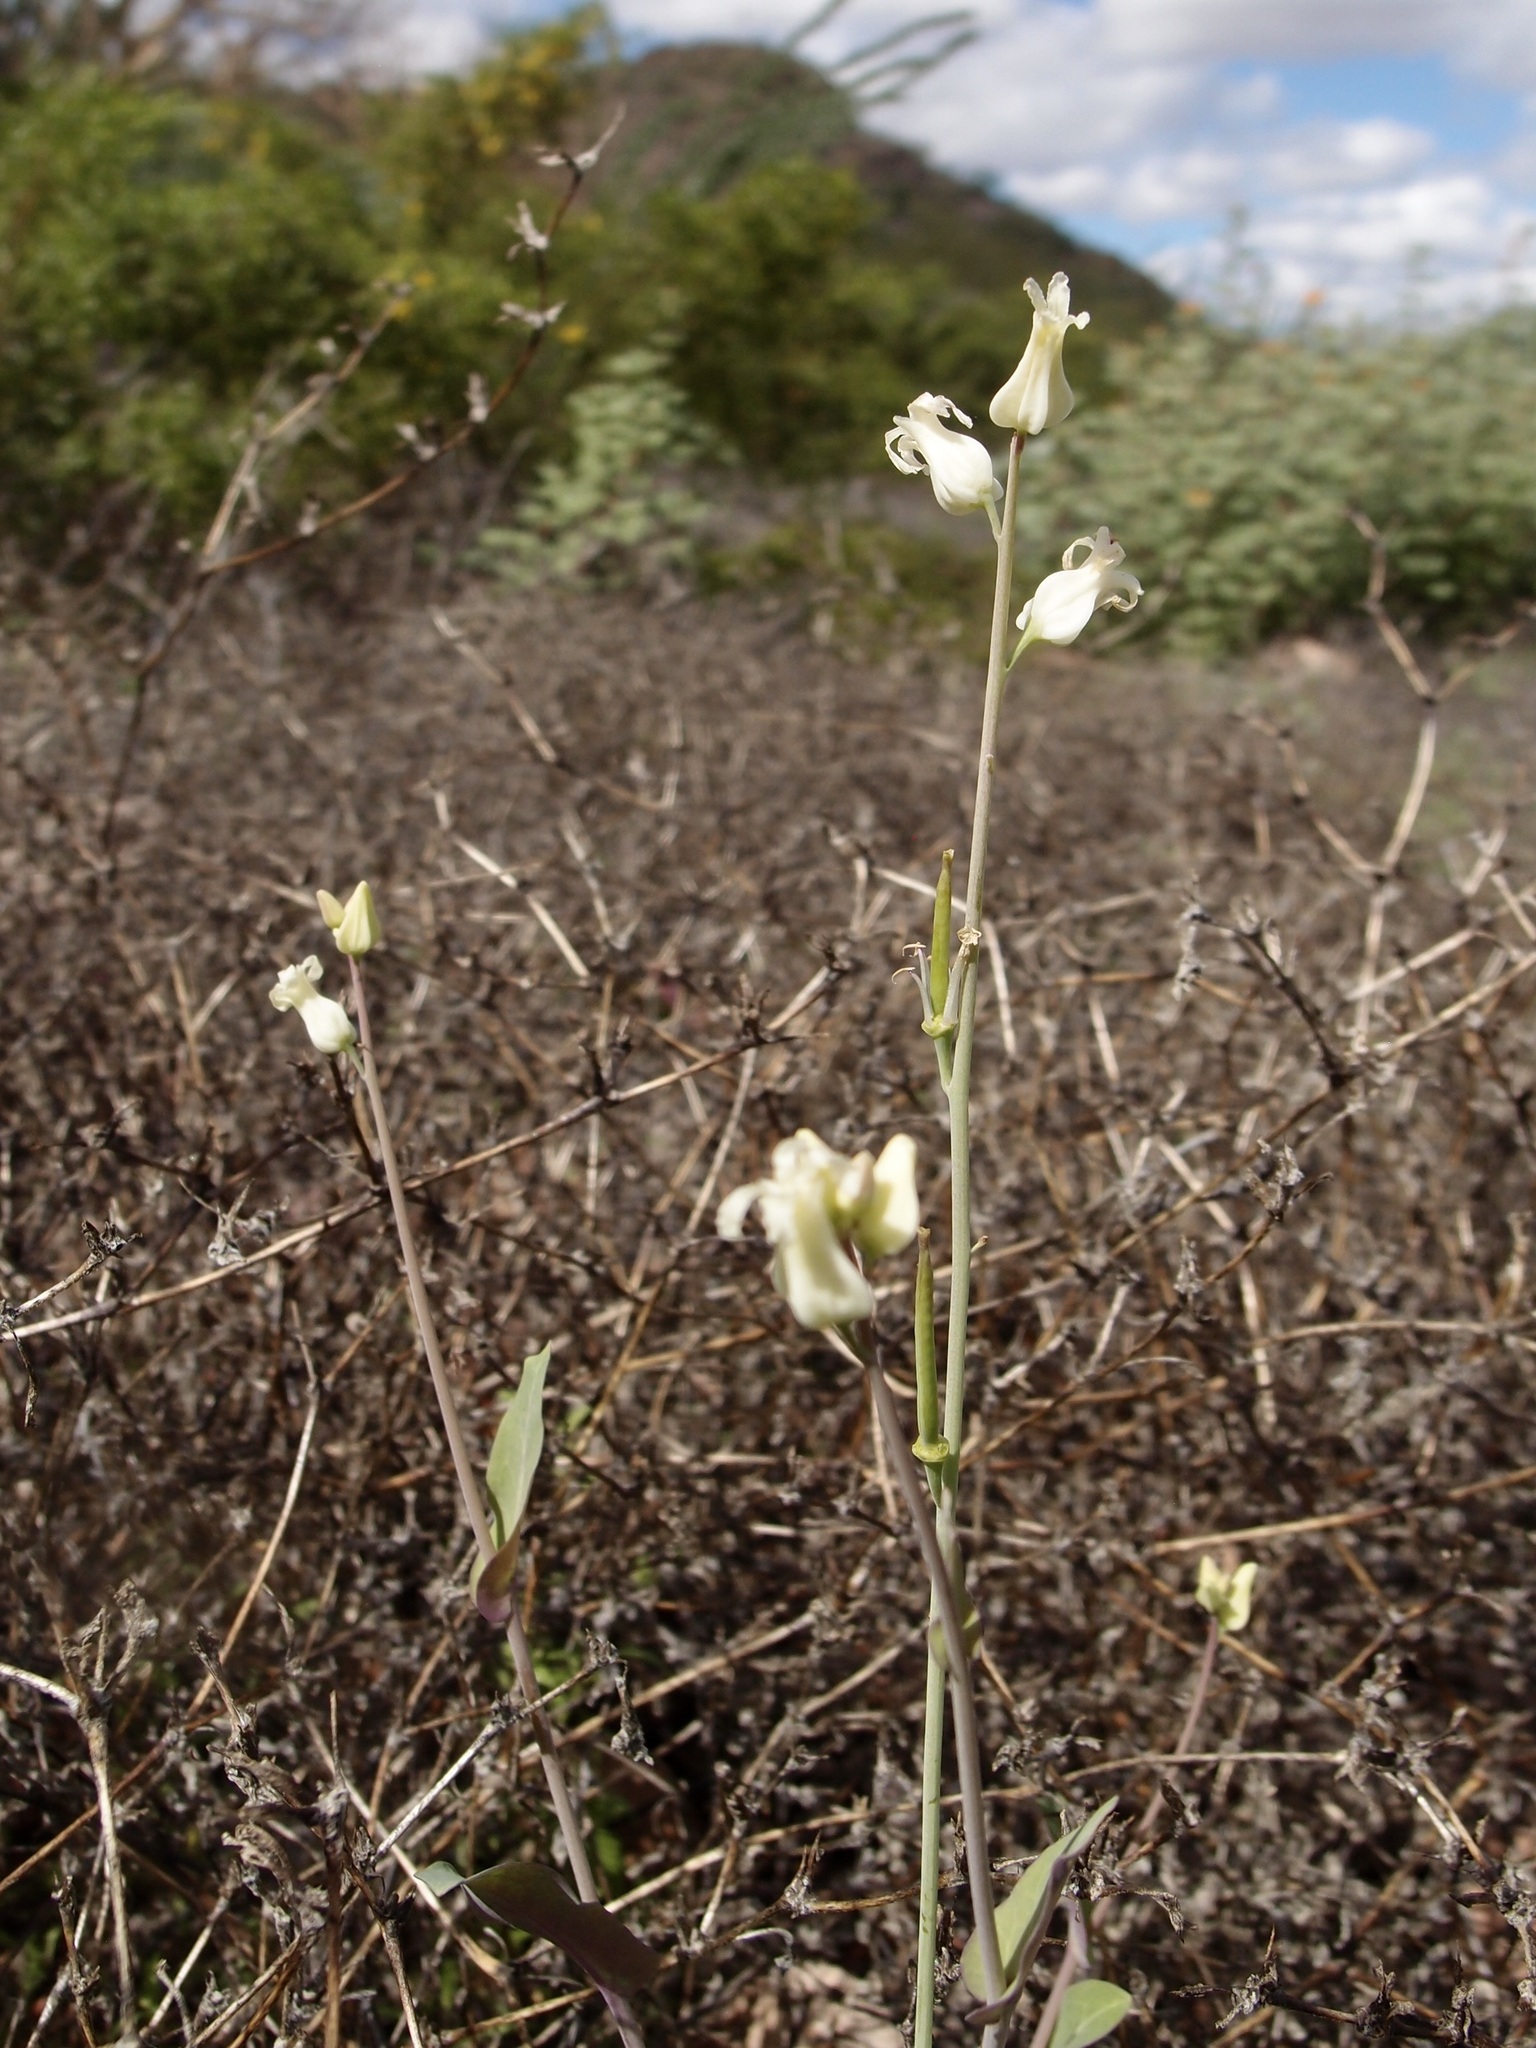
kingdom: Plantae
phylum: Tracheophyta
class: Magnoliopsida
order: Brassicales
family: Brassicaceae
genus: Streptanthus
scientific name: Streptanthus carinatus
